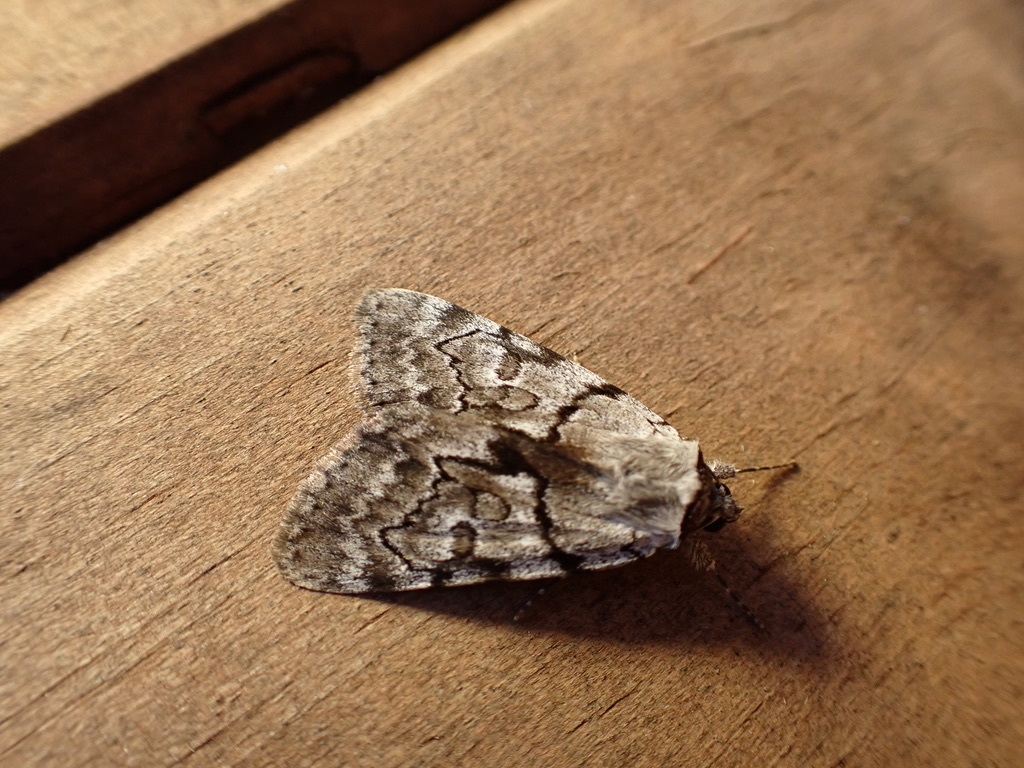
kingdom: Animalia
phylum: Arthropoda
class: Insecta
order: Lepidoptera
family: Erebidae
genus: Catocala
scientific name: Catocala sordida
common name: Sordid underwing
